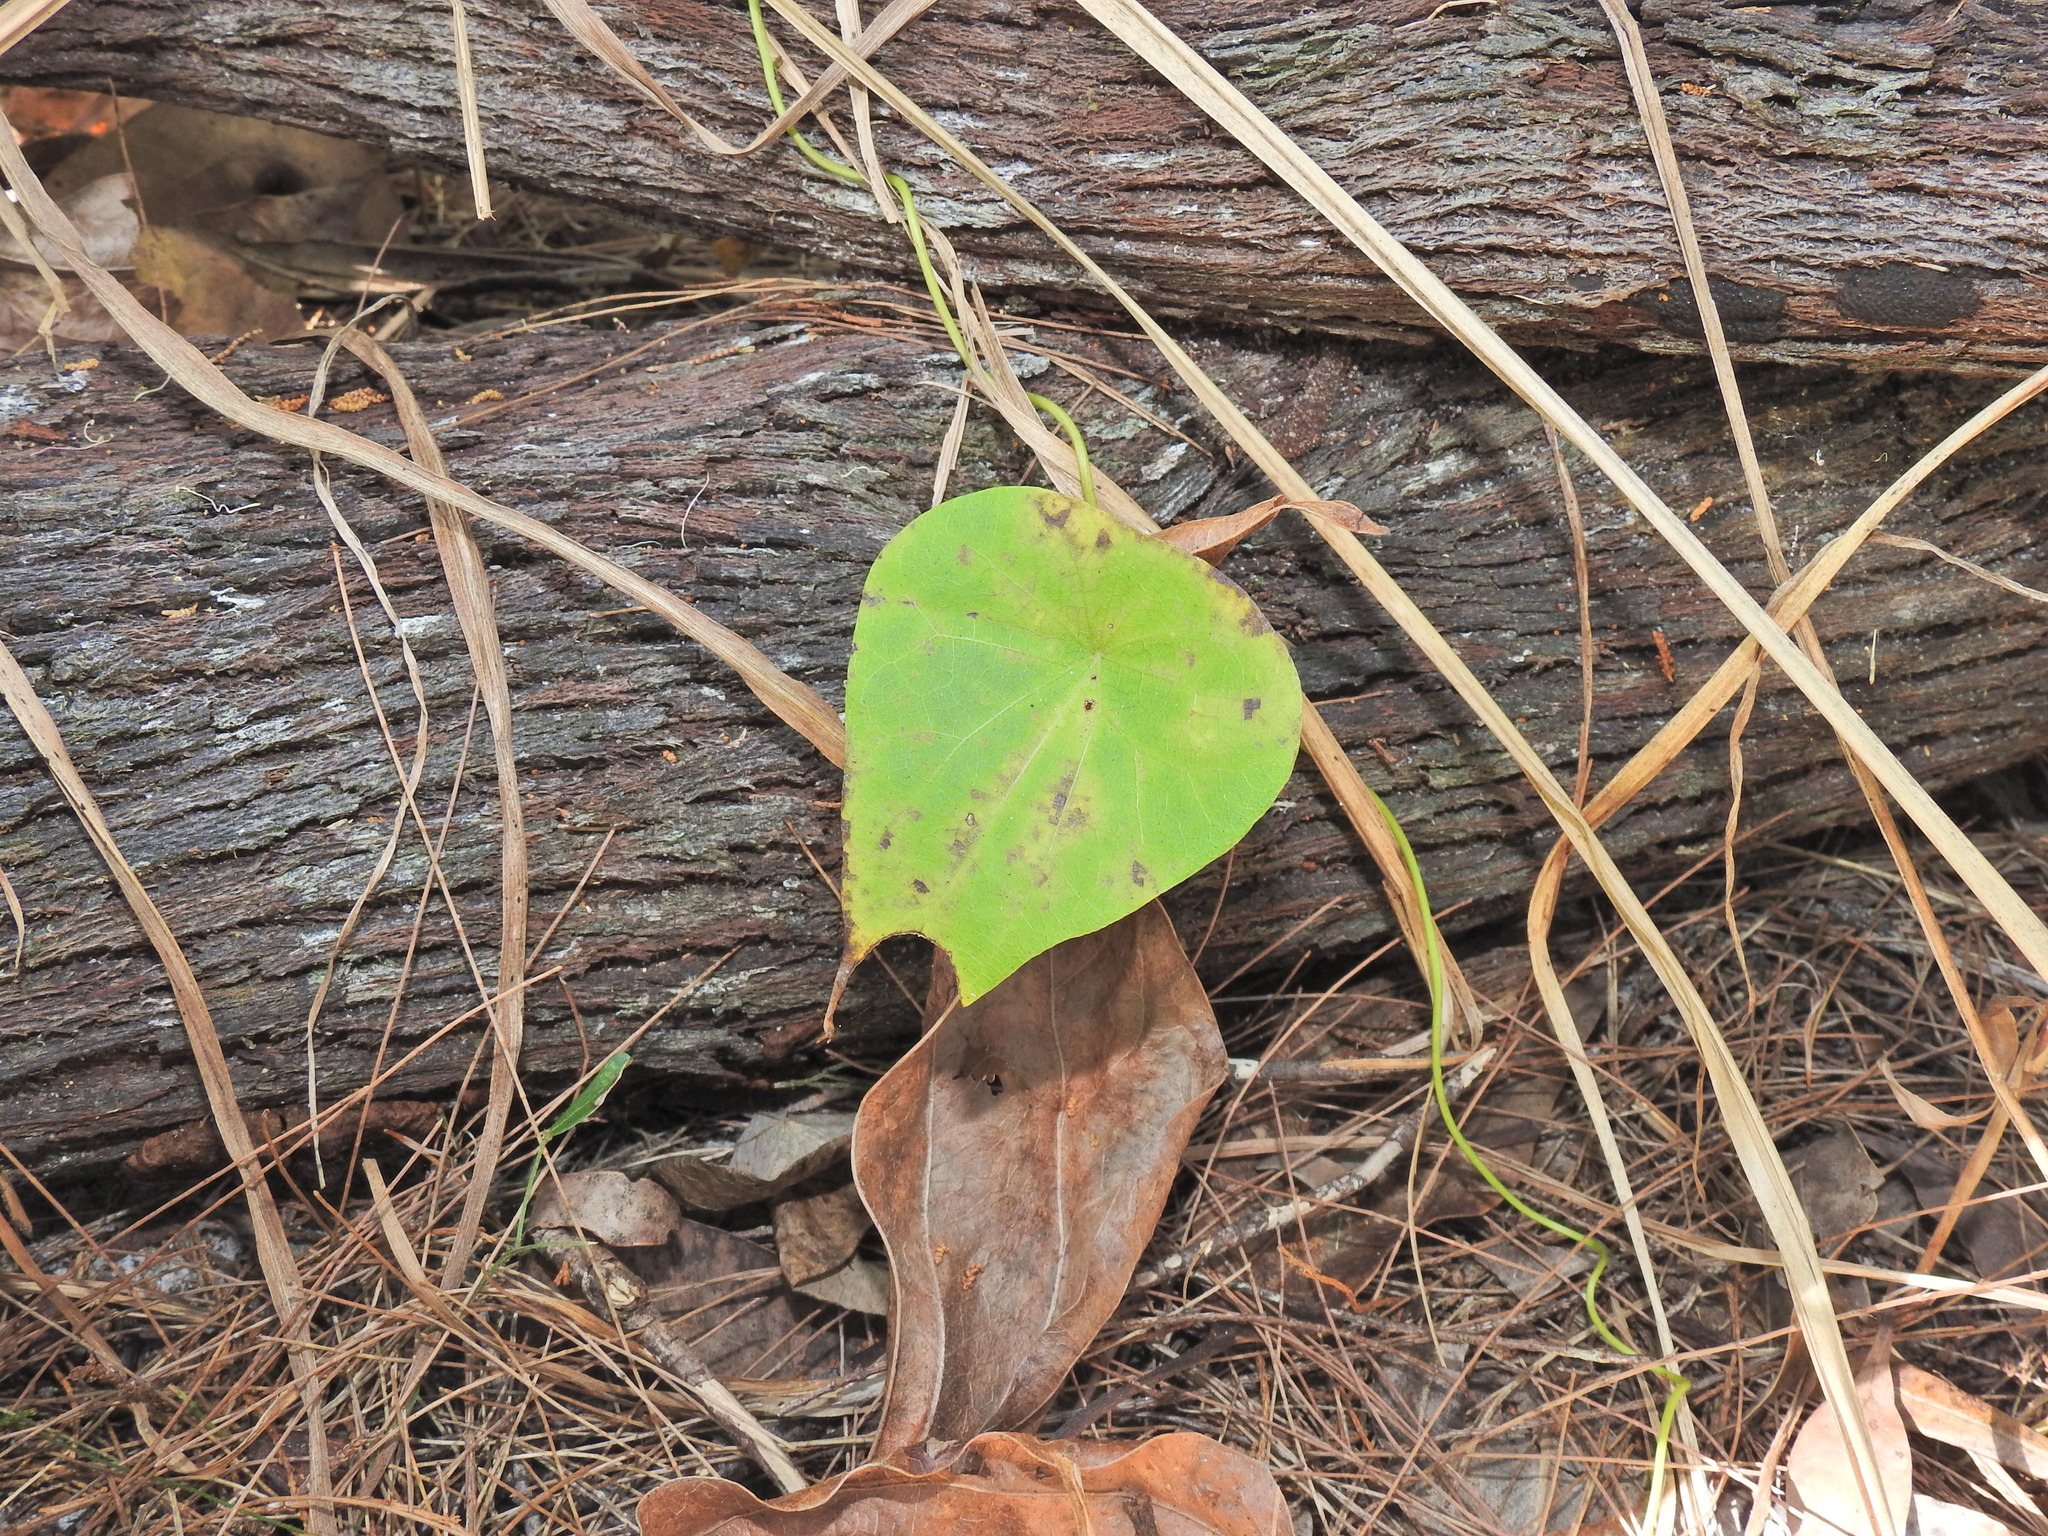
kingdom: Plantae
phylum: Tracheophyta
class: Magnoliopsida
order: Ranunculales
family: Menispermaceae
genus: Stephania
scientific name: Stephania japonica
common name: Snake vine
